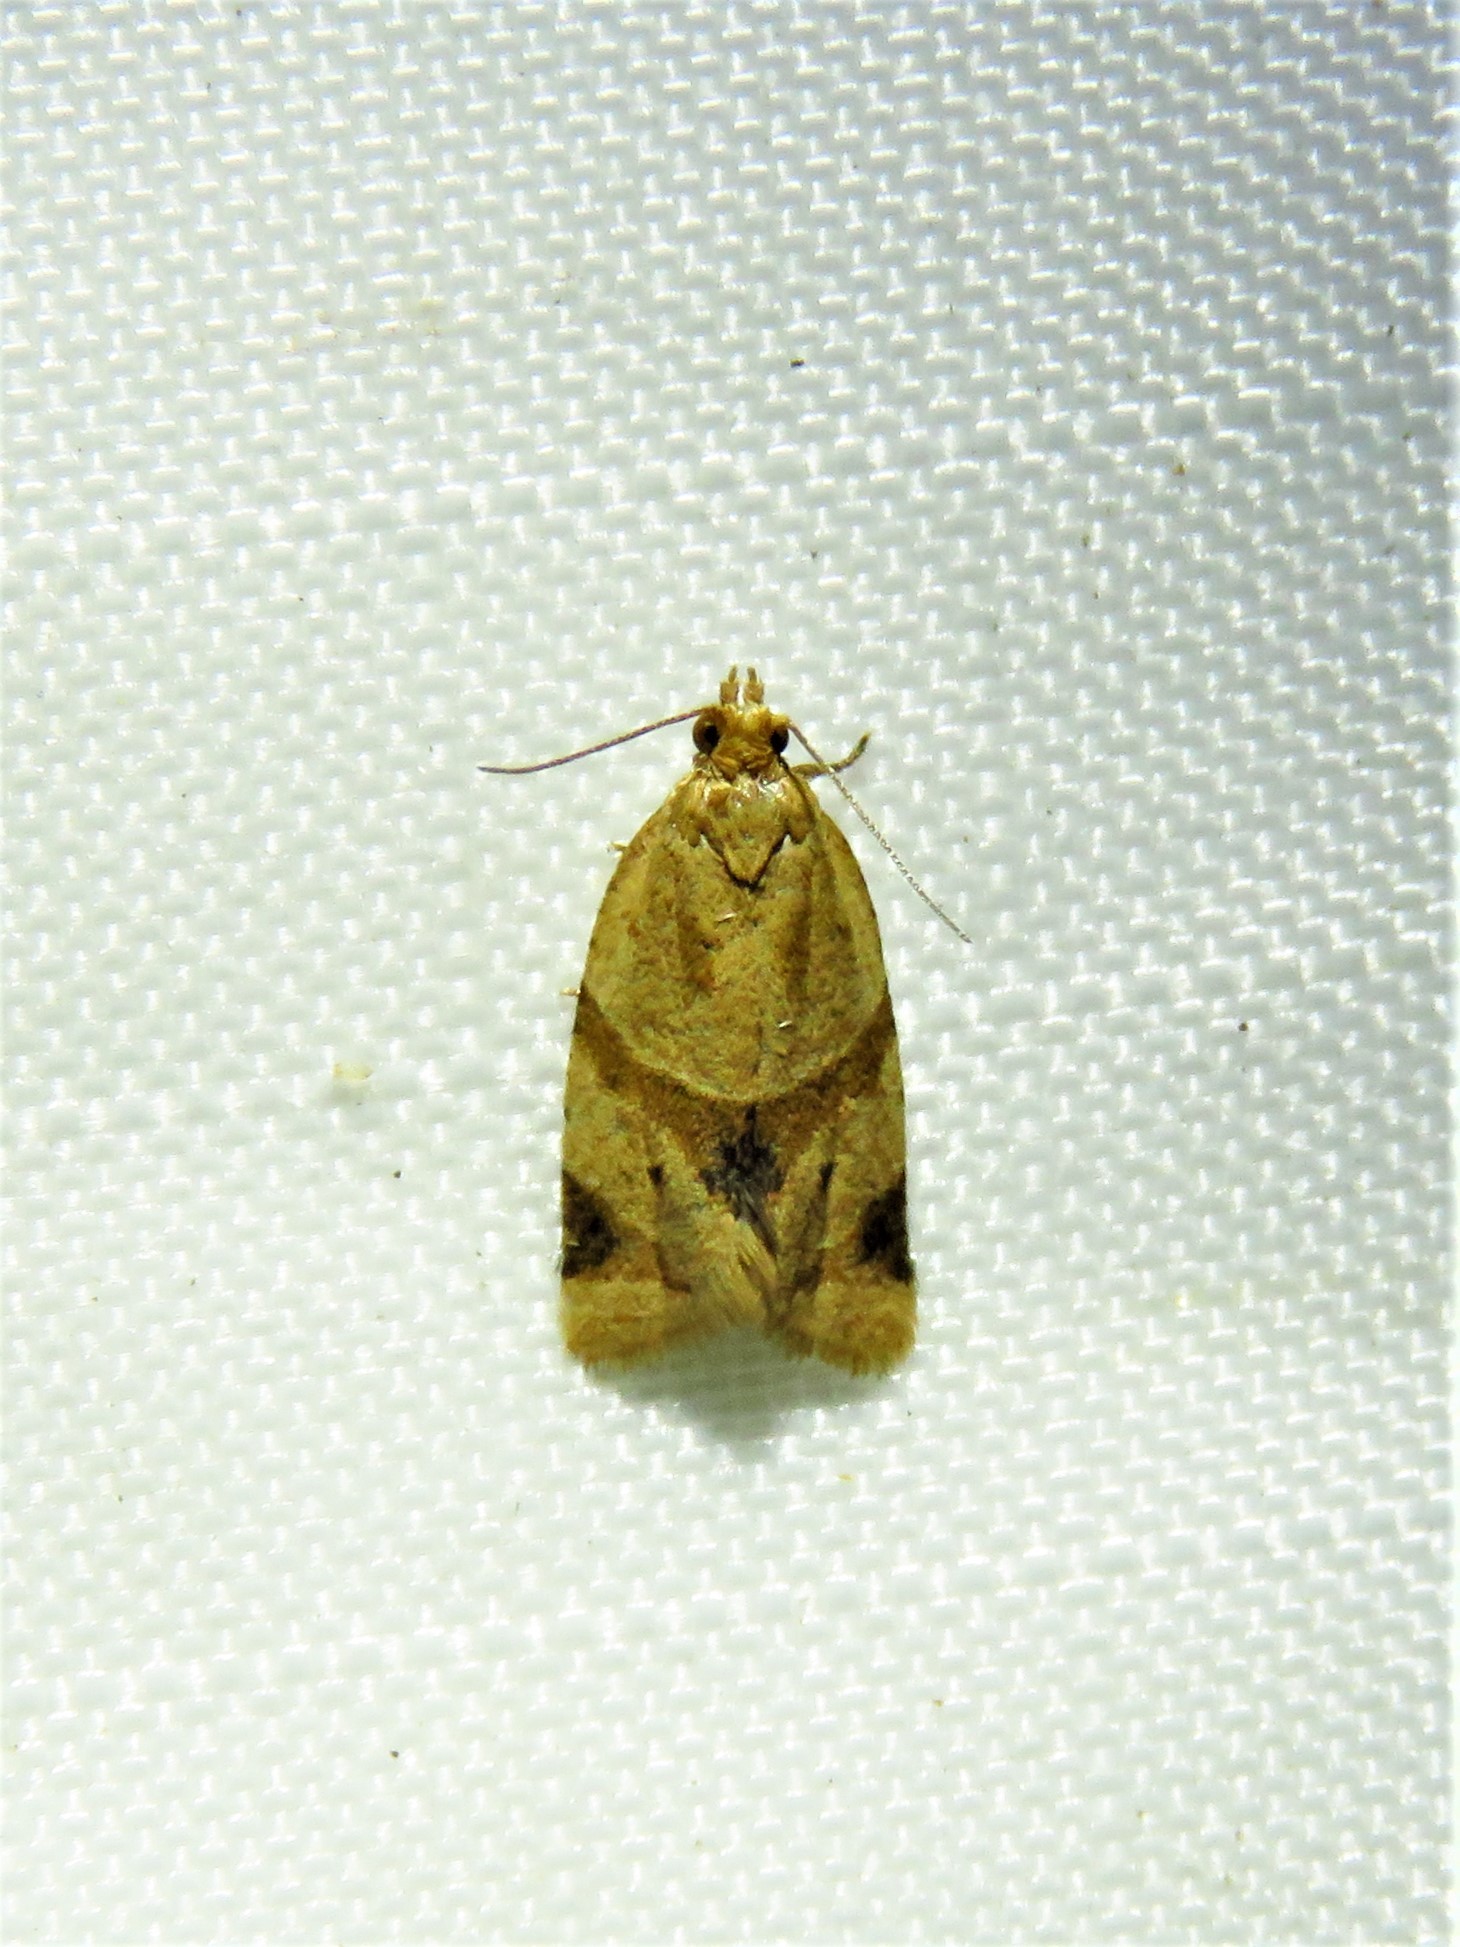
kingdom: Animalia
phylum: Arthropoda
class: Insecta
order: Lepidoptera
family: Tortricidae
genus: Clepsis
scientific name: Clepsis peritana
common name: Garden tortrix
